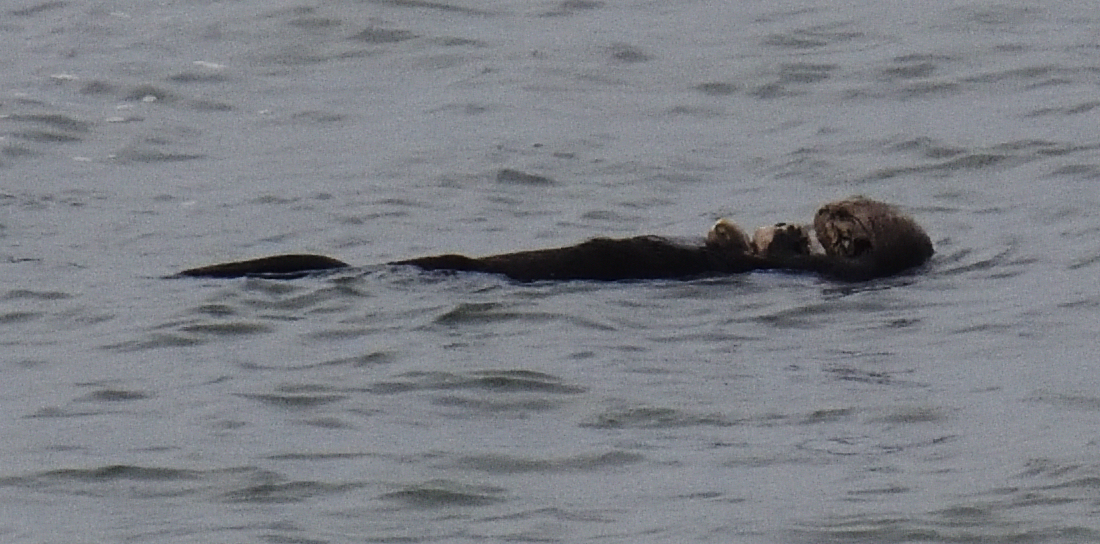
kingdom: Animalia
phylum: Chordata
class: Mammalia
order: Carnivora
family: Mustelidae
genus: Enhydra
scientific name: Enhydra lutris
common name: Sea otter
